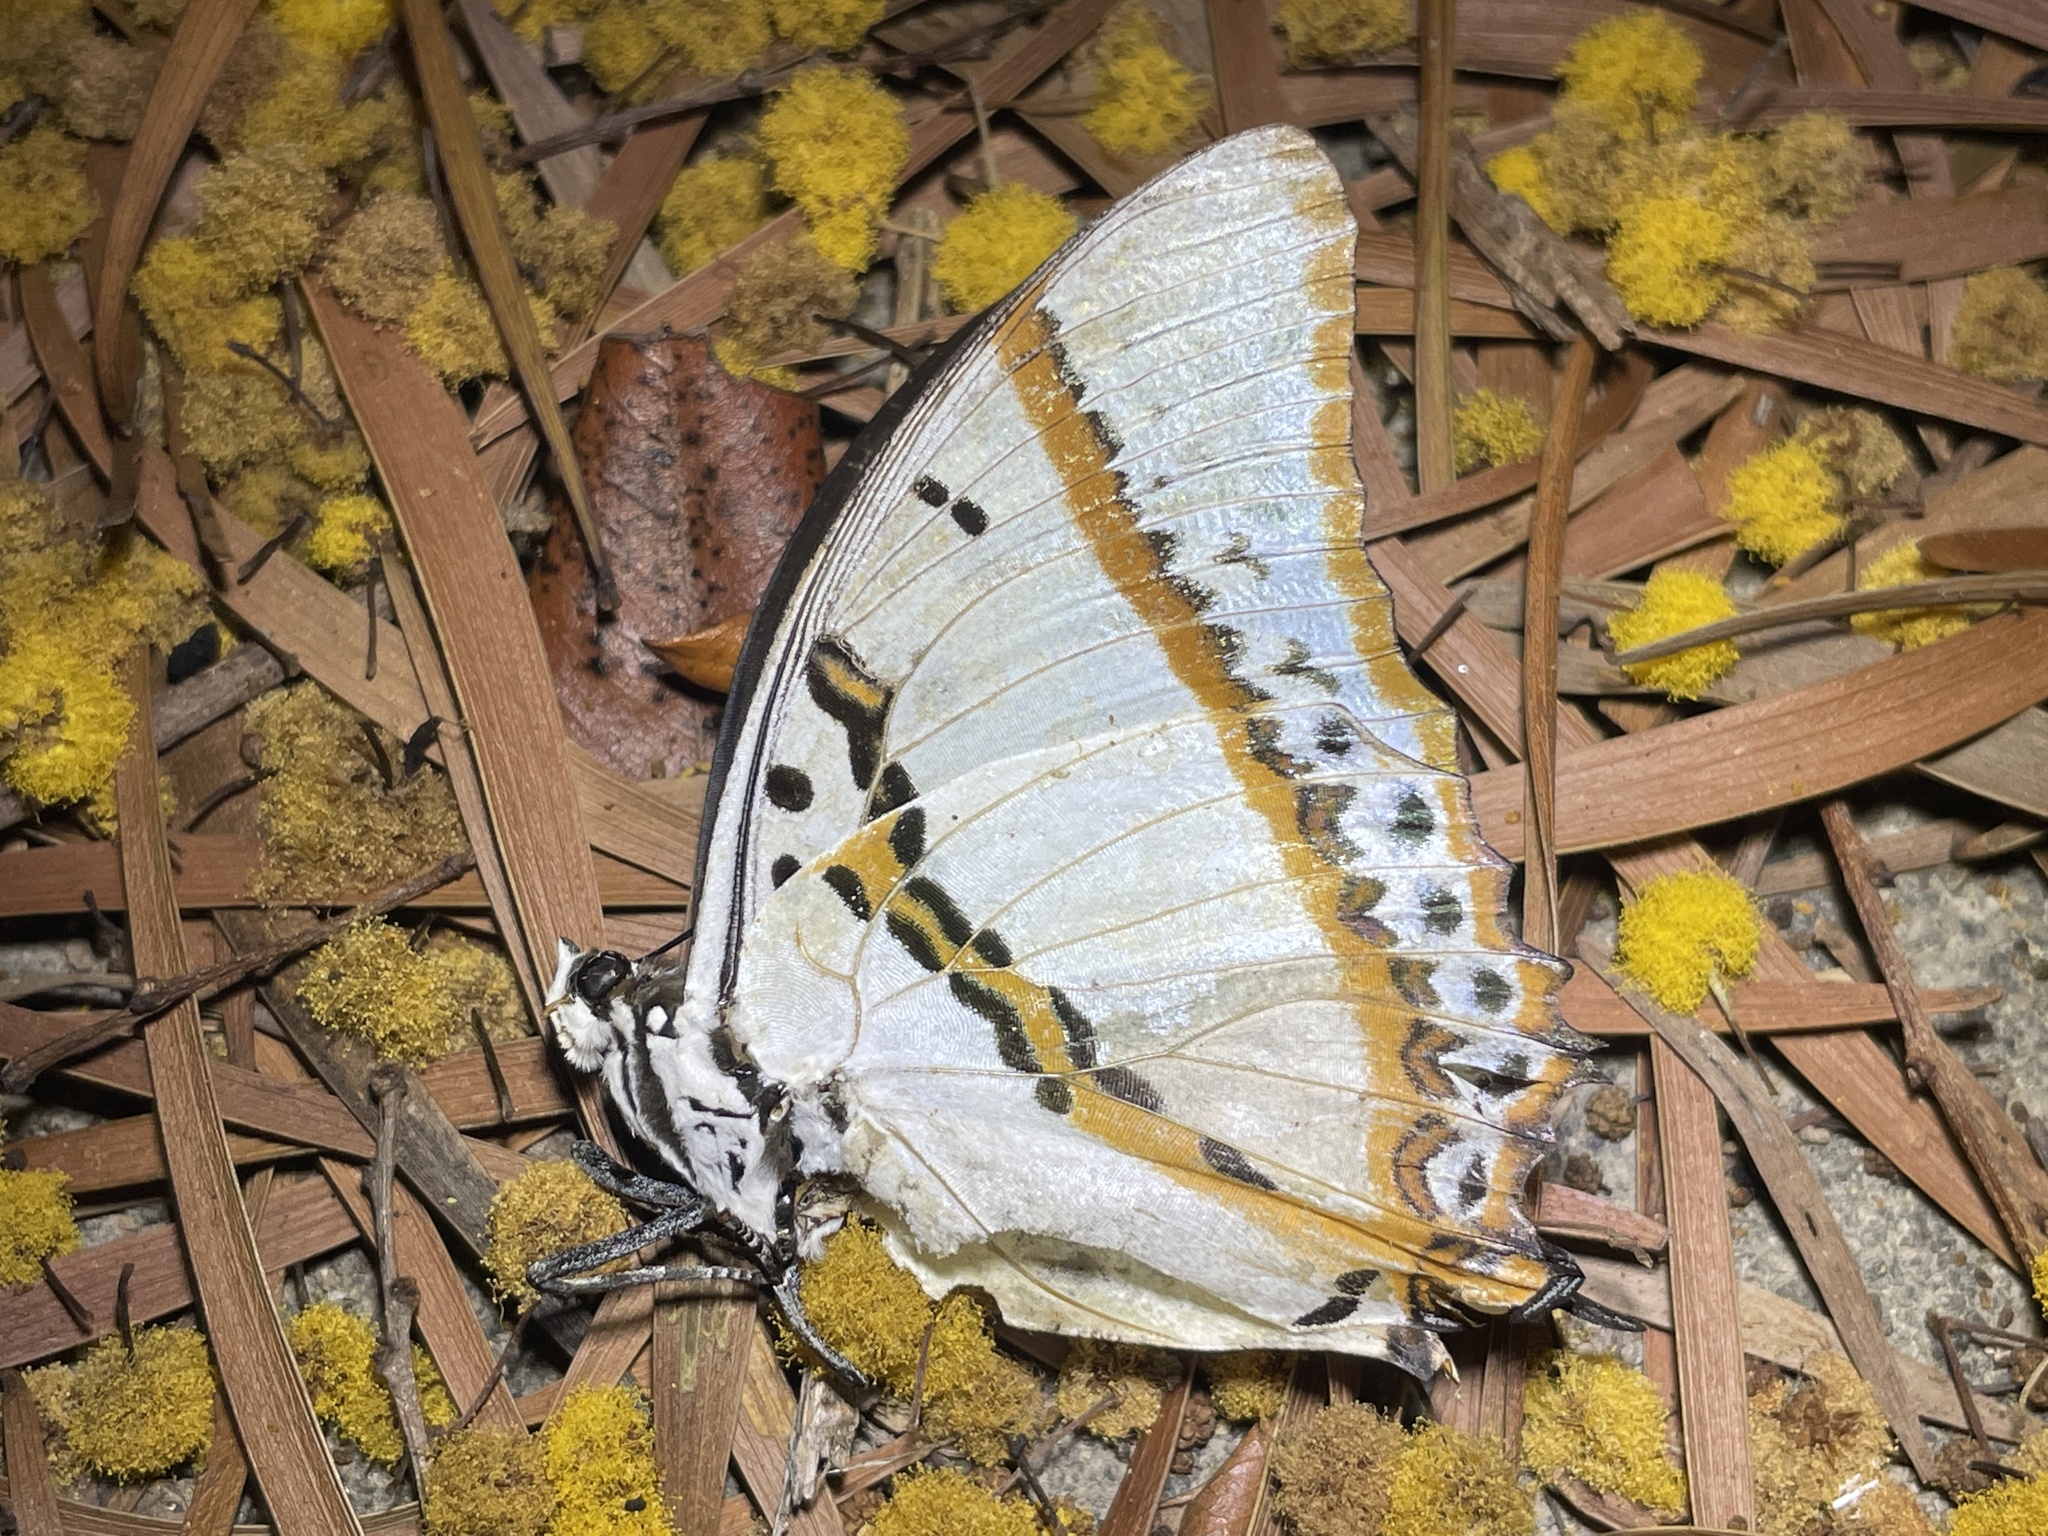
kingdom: Animalia
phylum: Arthropoda
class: Insecta
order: Lepidoptera
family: Nymphalidae
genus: Polyura
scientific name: Polyura nepenthes
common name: Shan nawab
